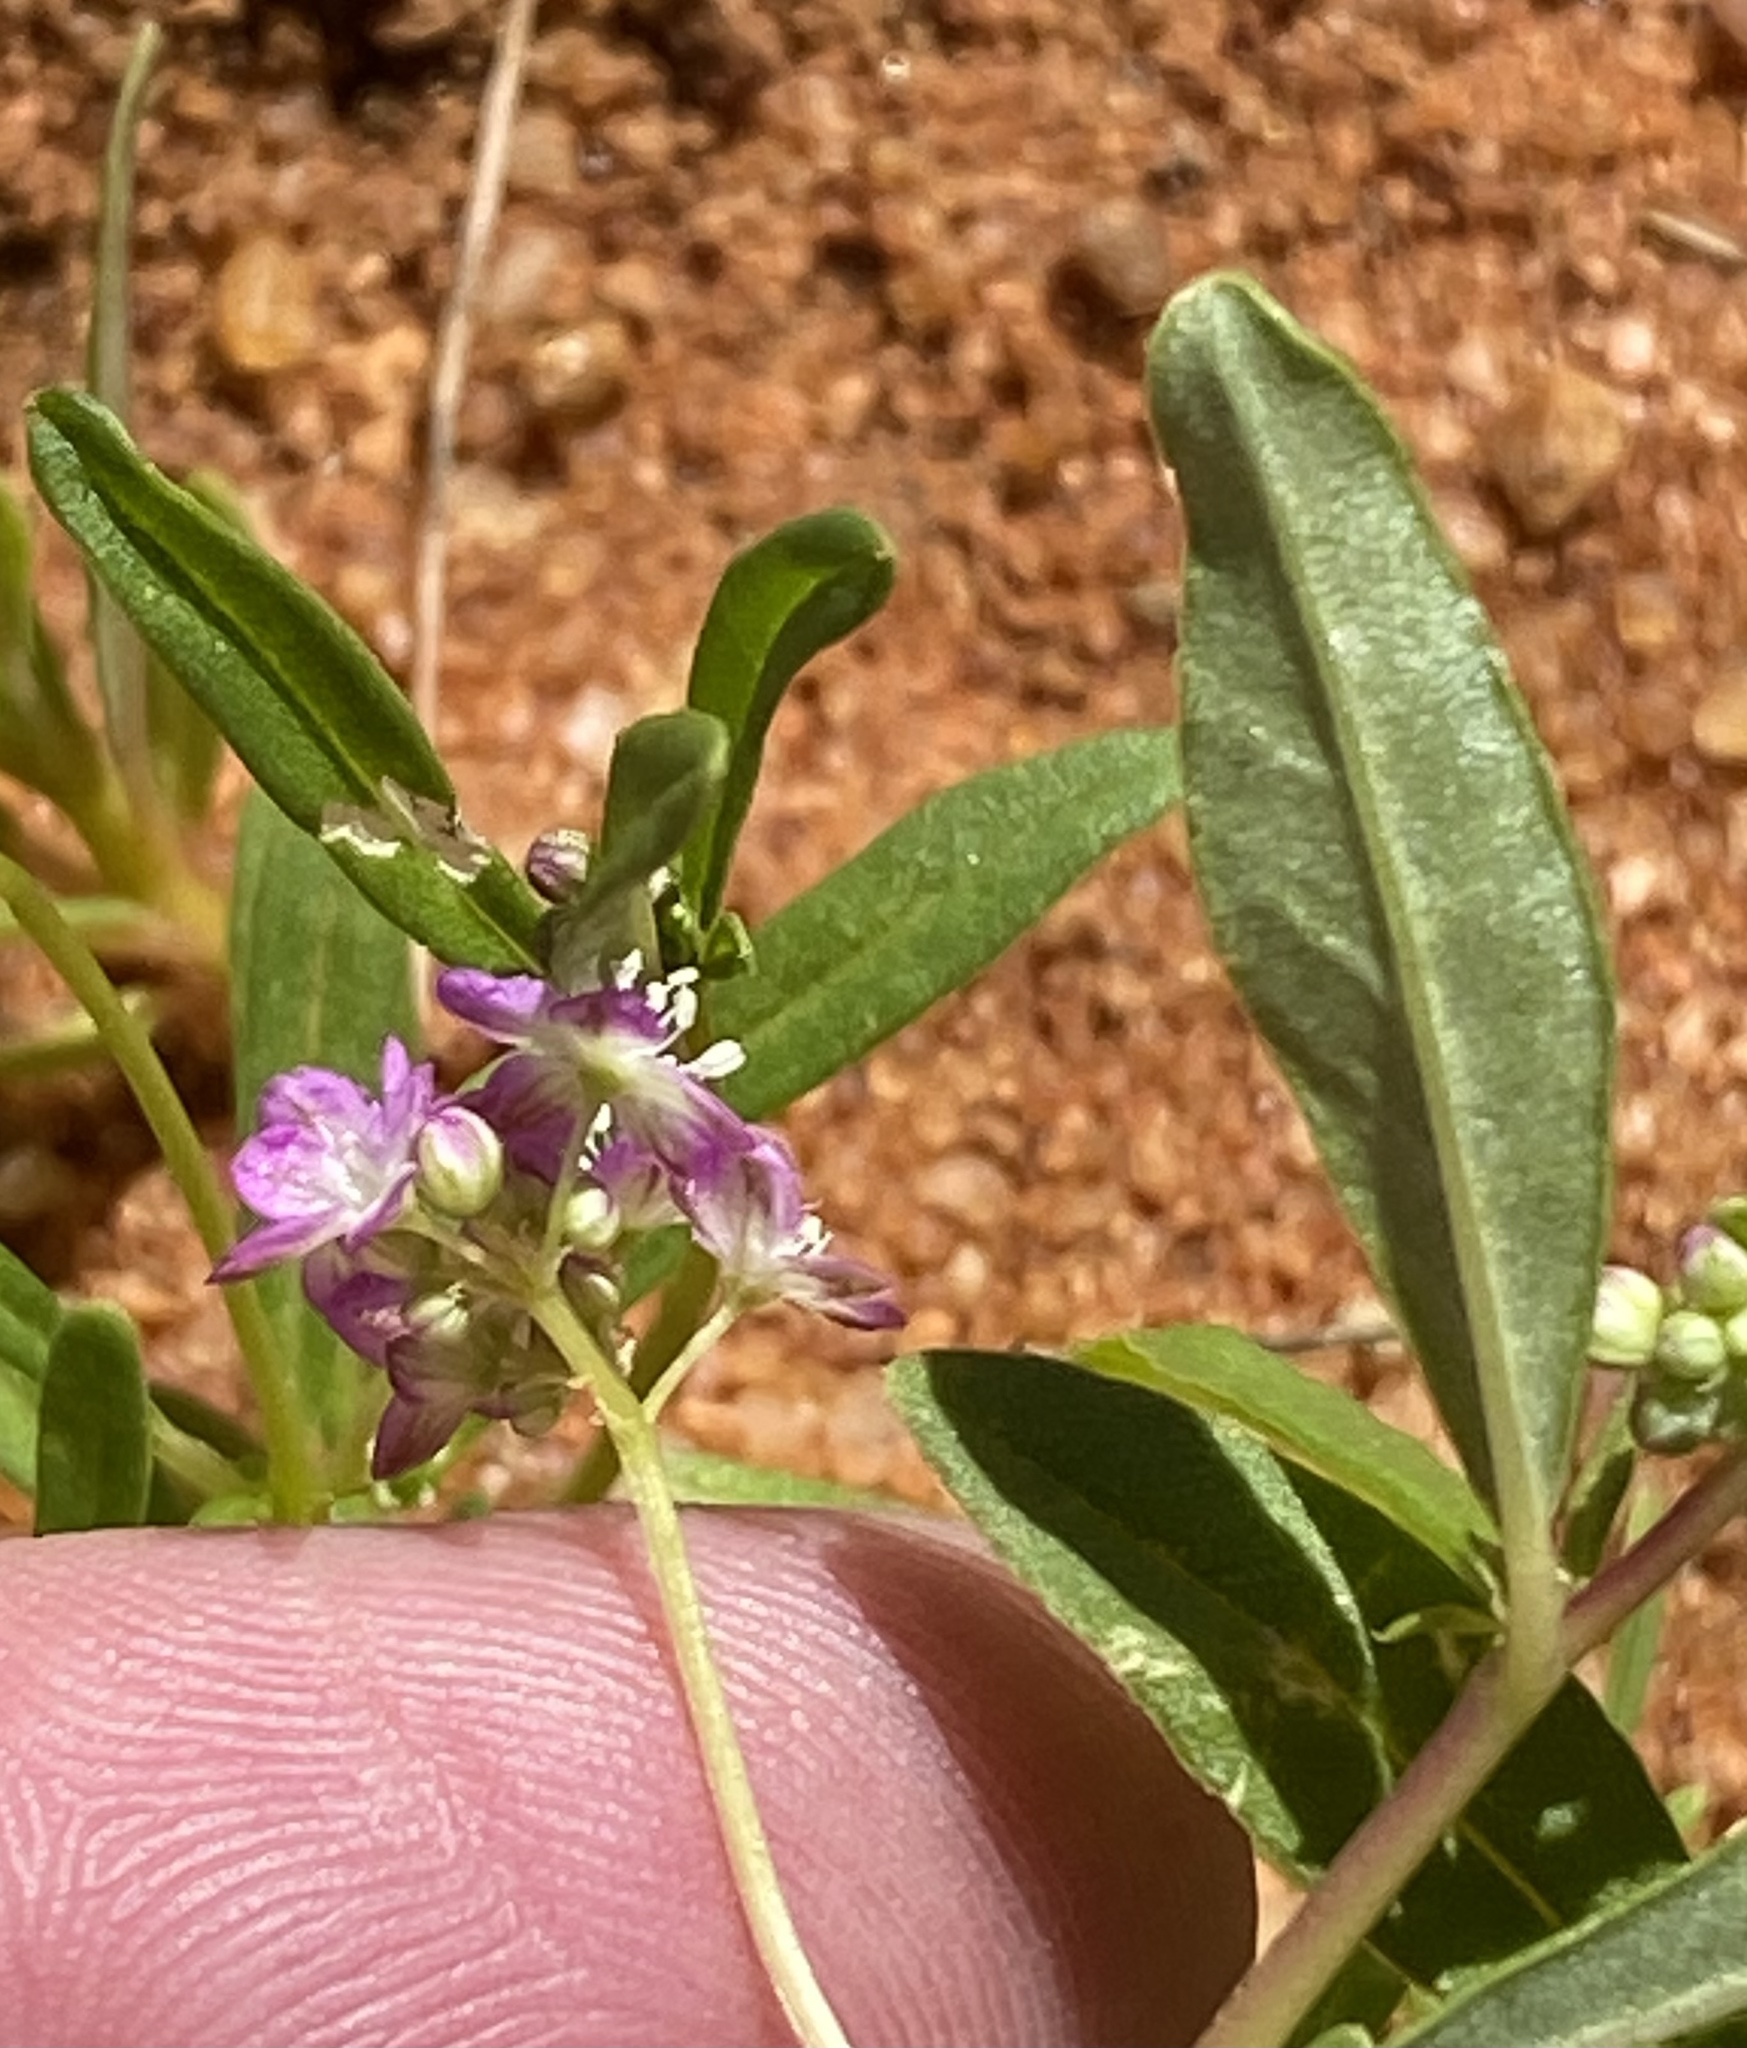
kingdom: Plantae
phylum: Tracheophyta
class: Magnoliopsida
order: Caryophyllales
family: Gisekiaceae
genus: Gisekia
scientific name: Gisekia africana
